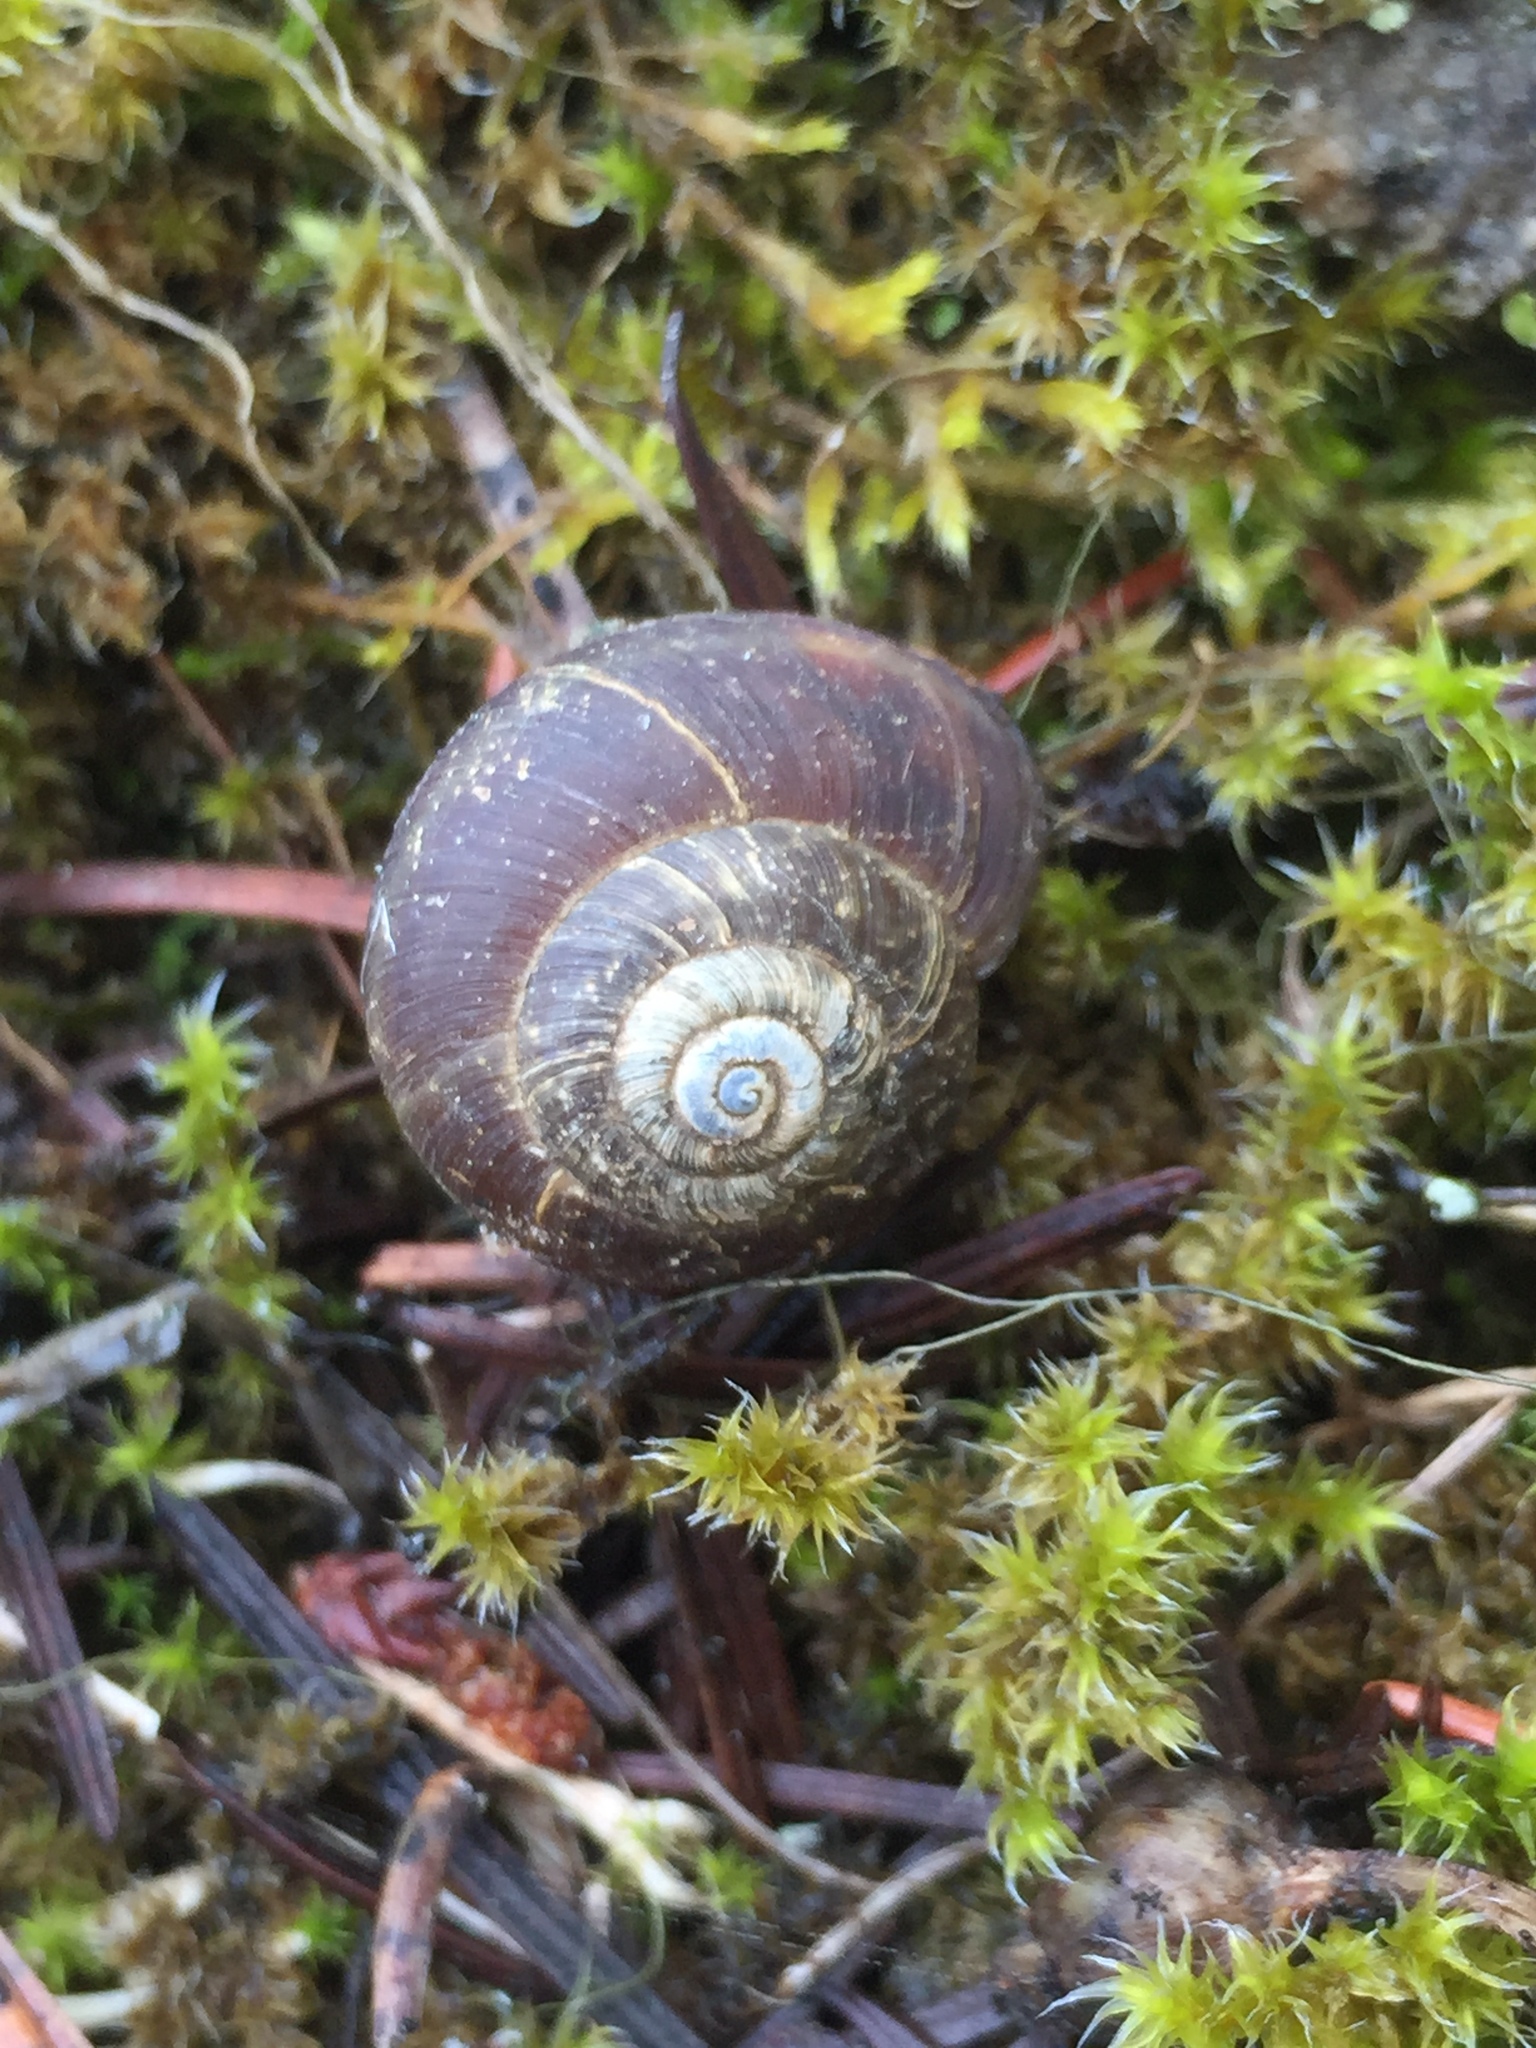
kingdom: Animalia
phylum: Mollusca
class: Gastropoda
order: Stylommatophora
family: Discidae
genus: Anguispira
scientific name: Anguispira kochi
